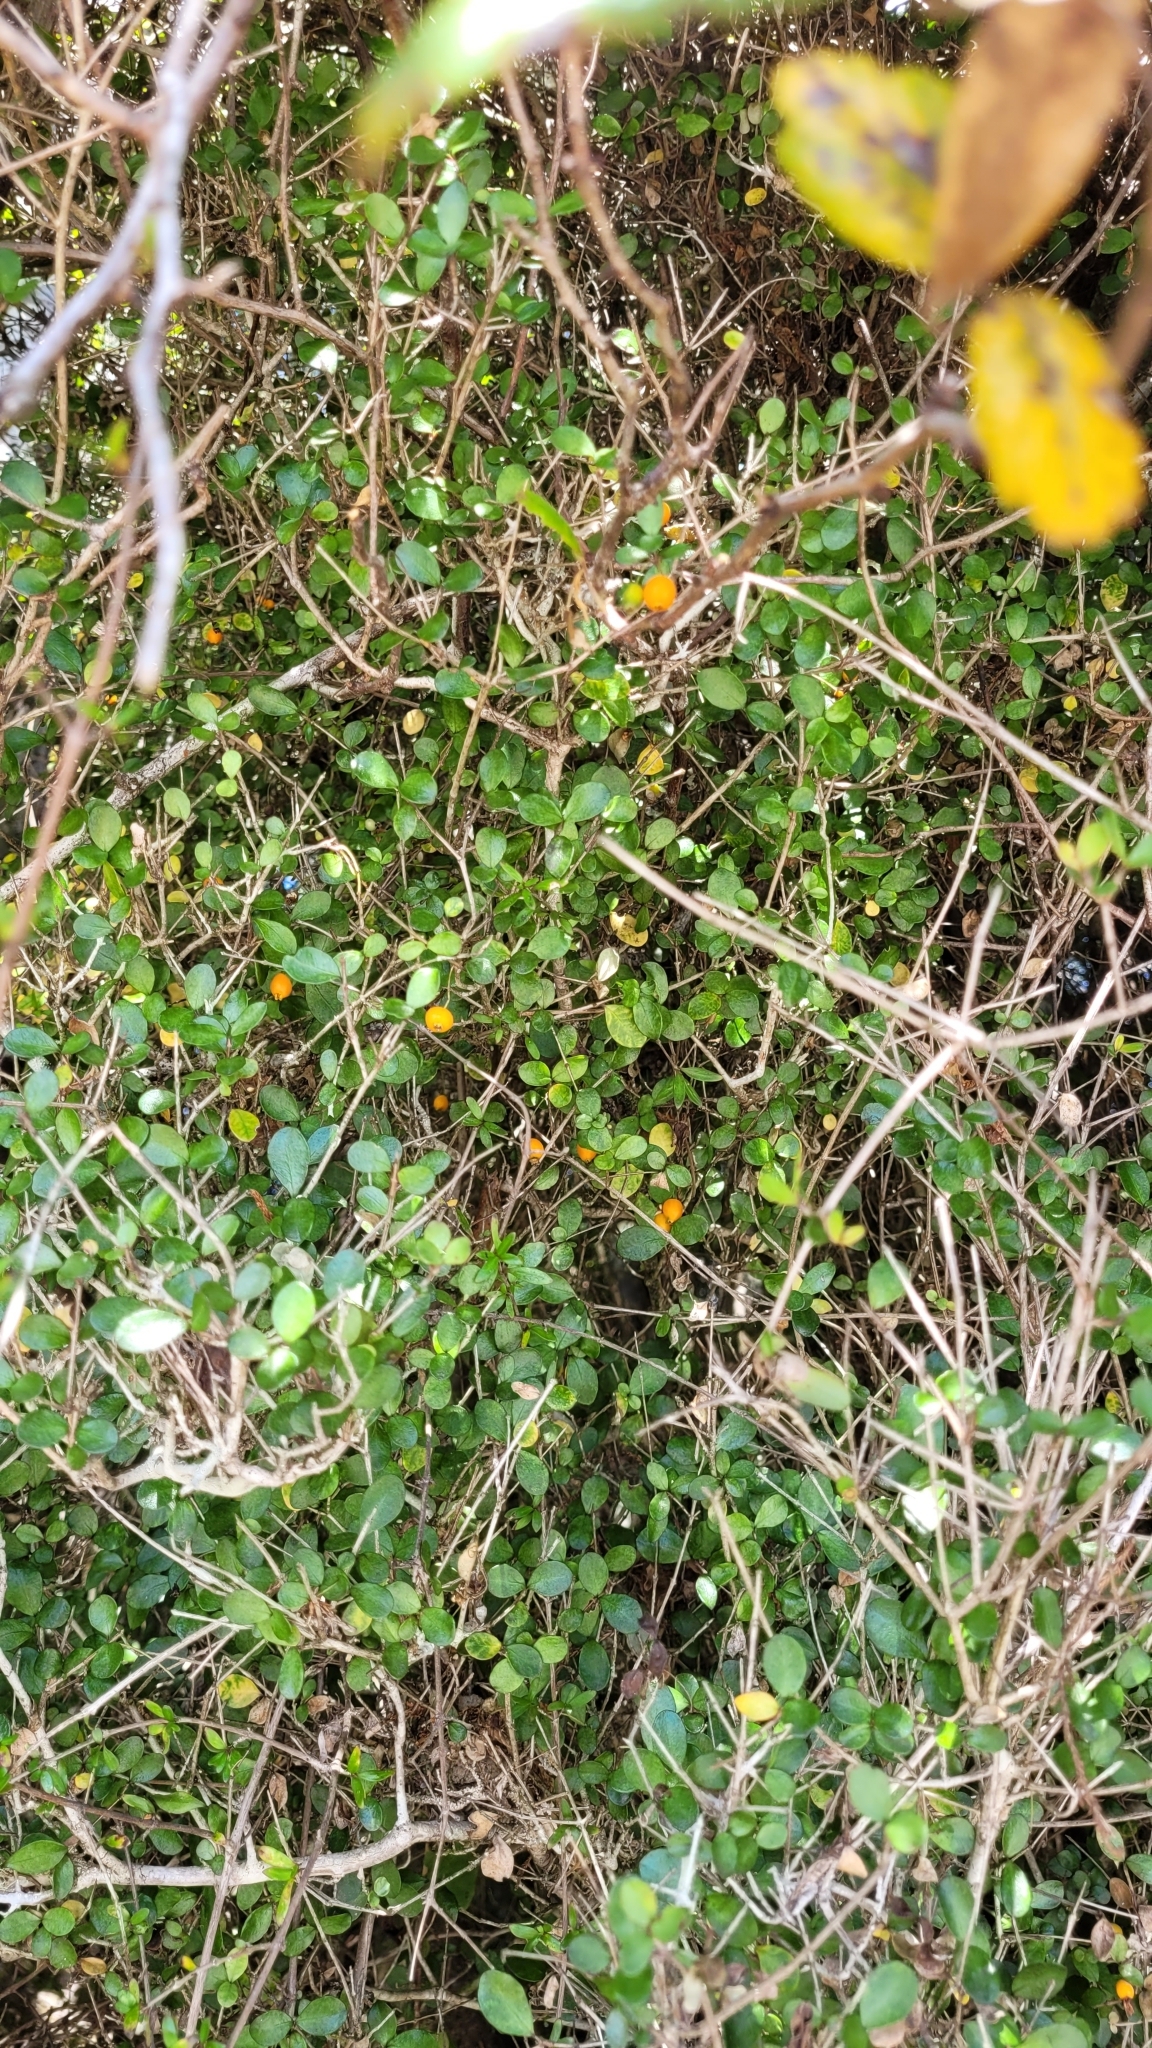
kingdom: Plantae
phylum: Tracheophyta
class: Magnoliopsida
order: Myrtales
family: Myrtaceae
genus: Neomyrtus
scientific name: Neomyrtus pedunculata
